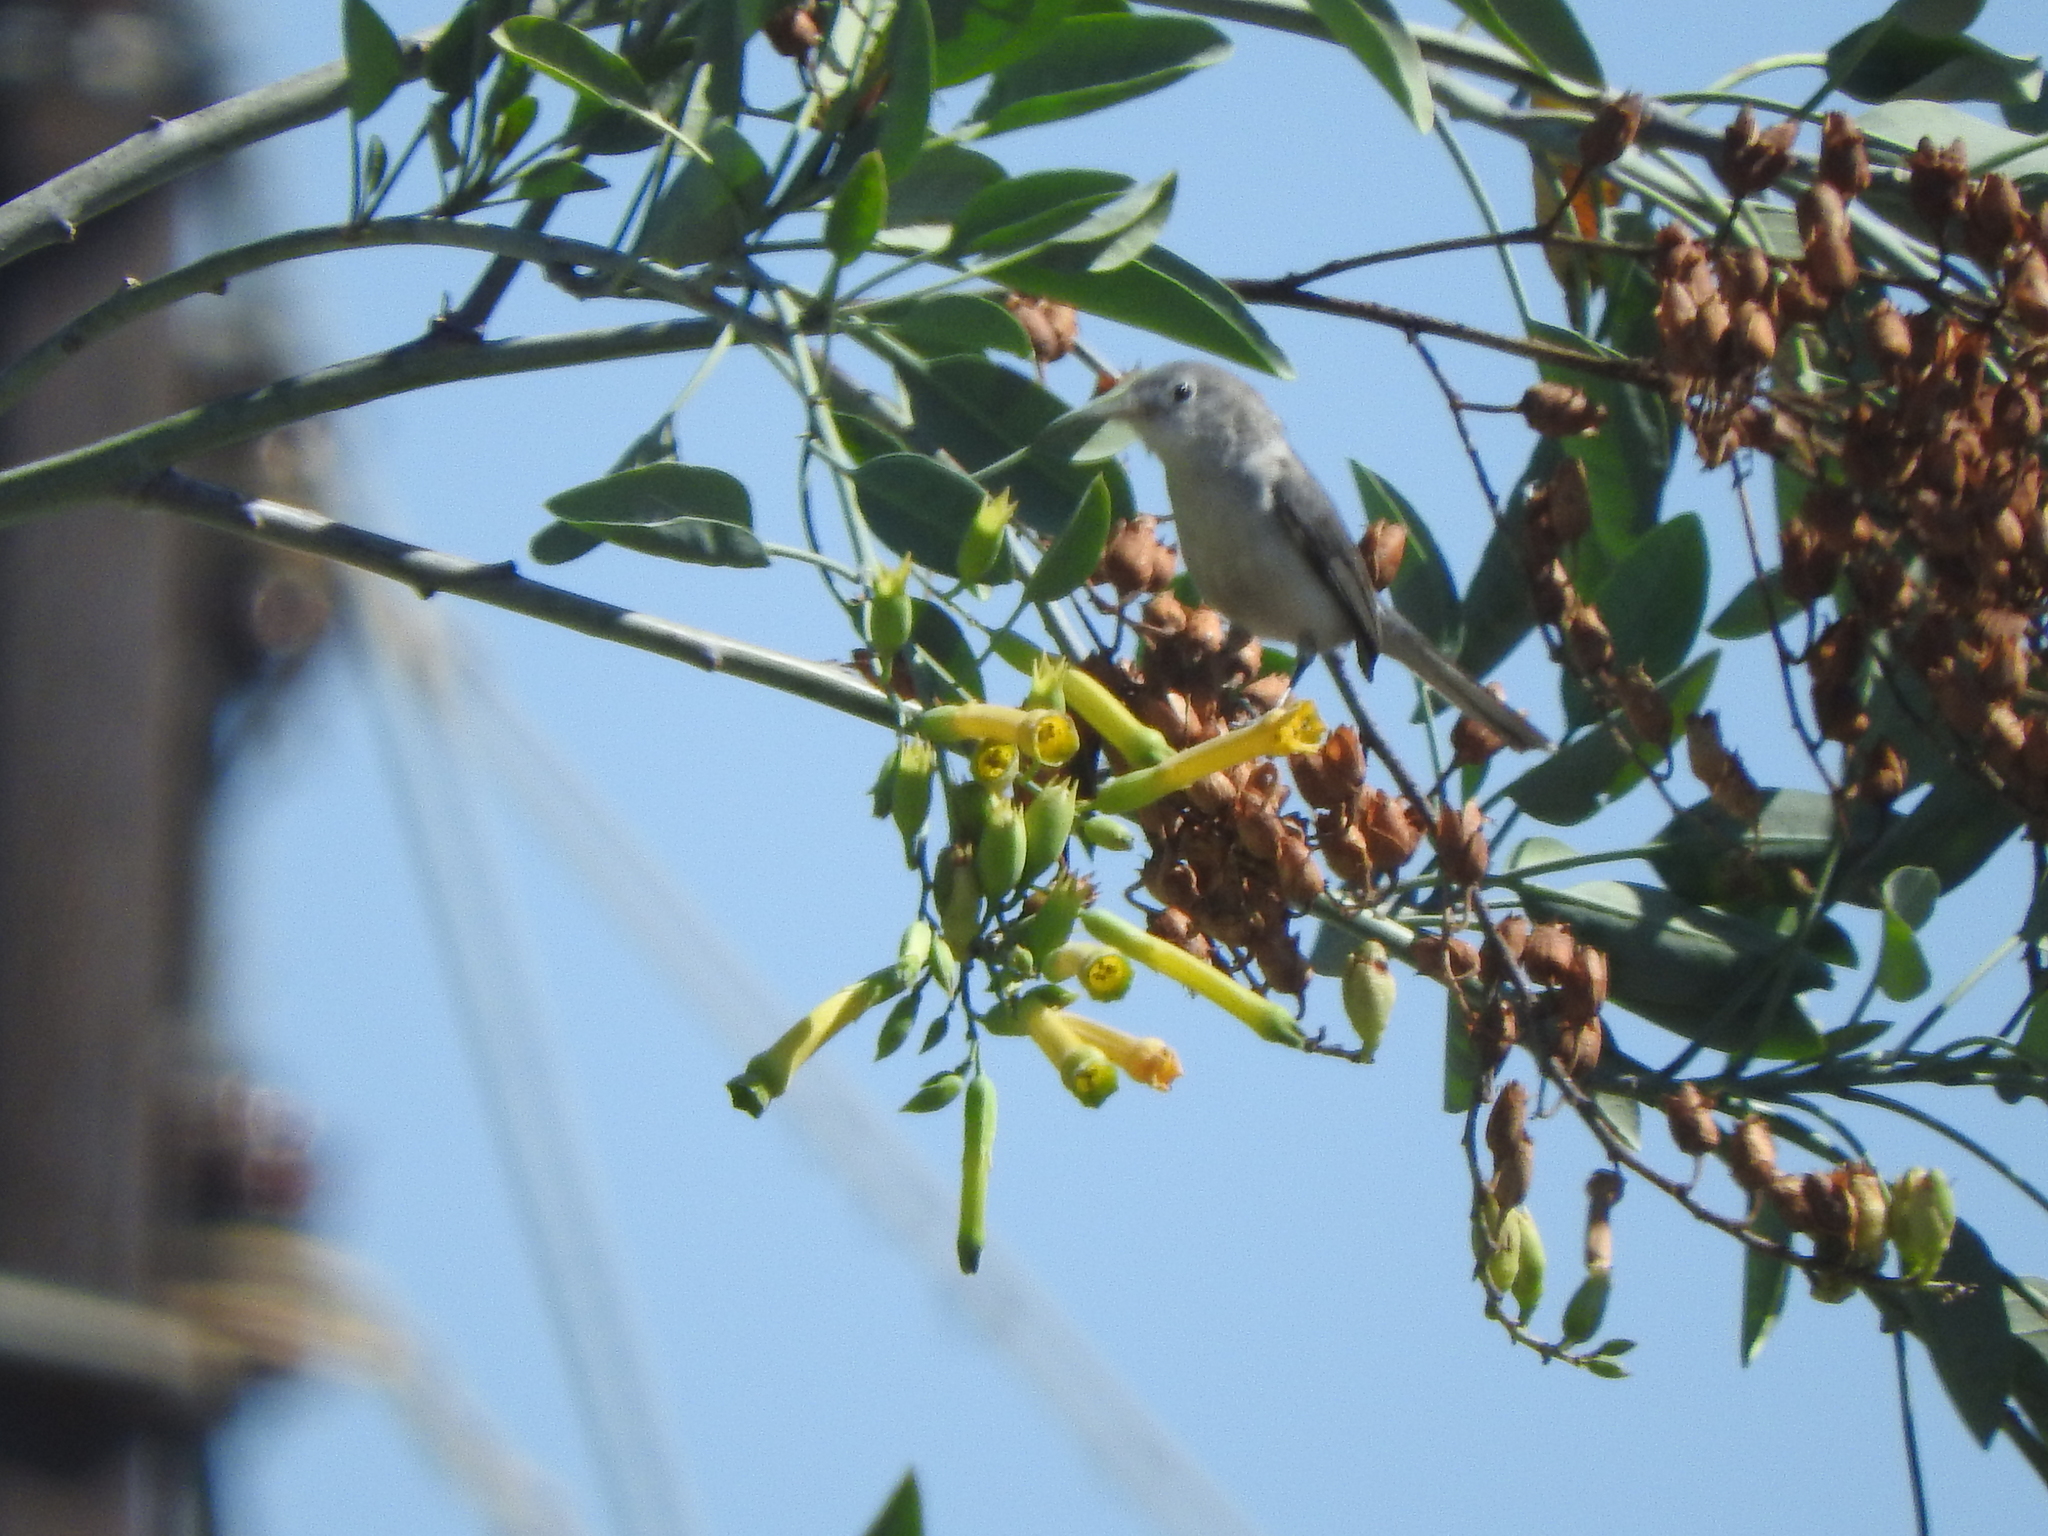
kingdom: Animalia
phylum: Chordata
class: Aves
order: Passeriformes
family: Polioptilidae
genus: Polioptila
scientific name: Polioptila caerulea
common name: Blue-gray gnatcatcher
